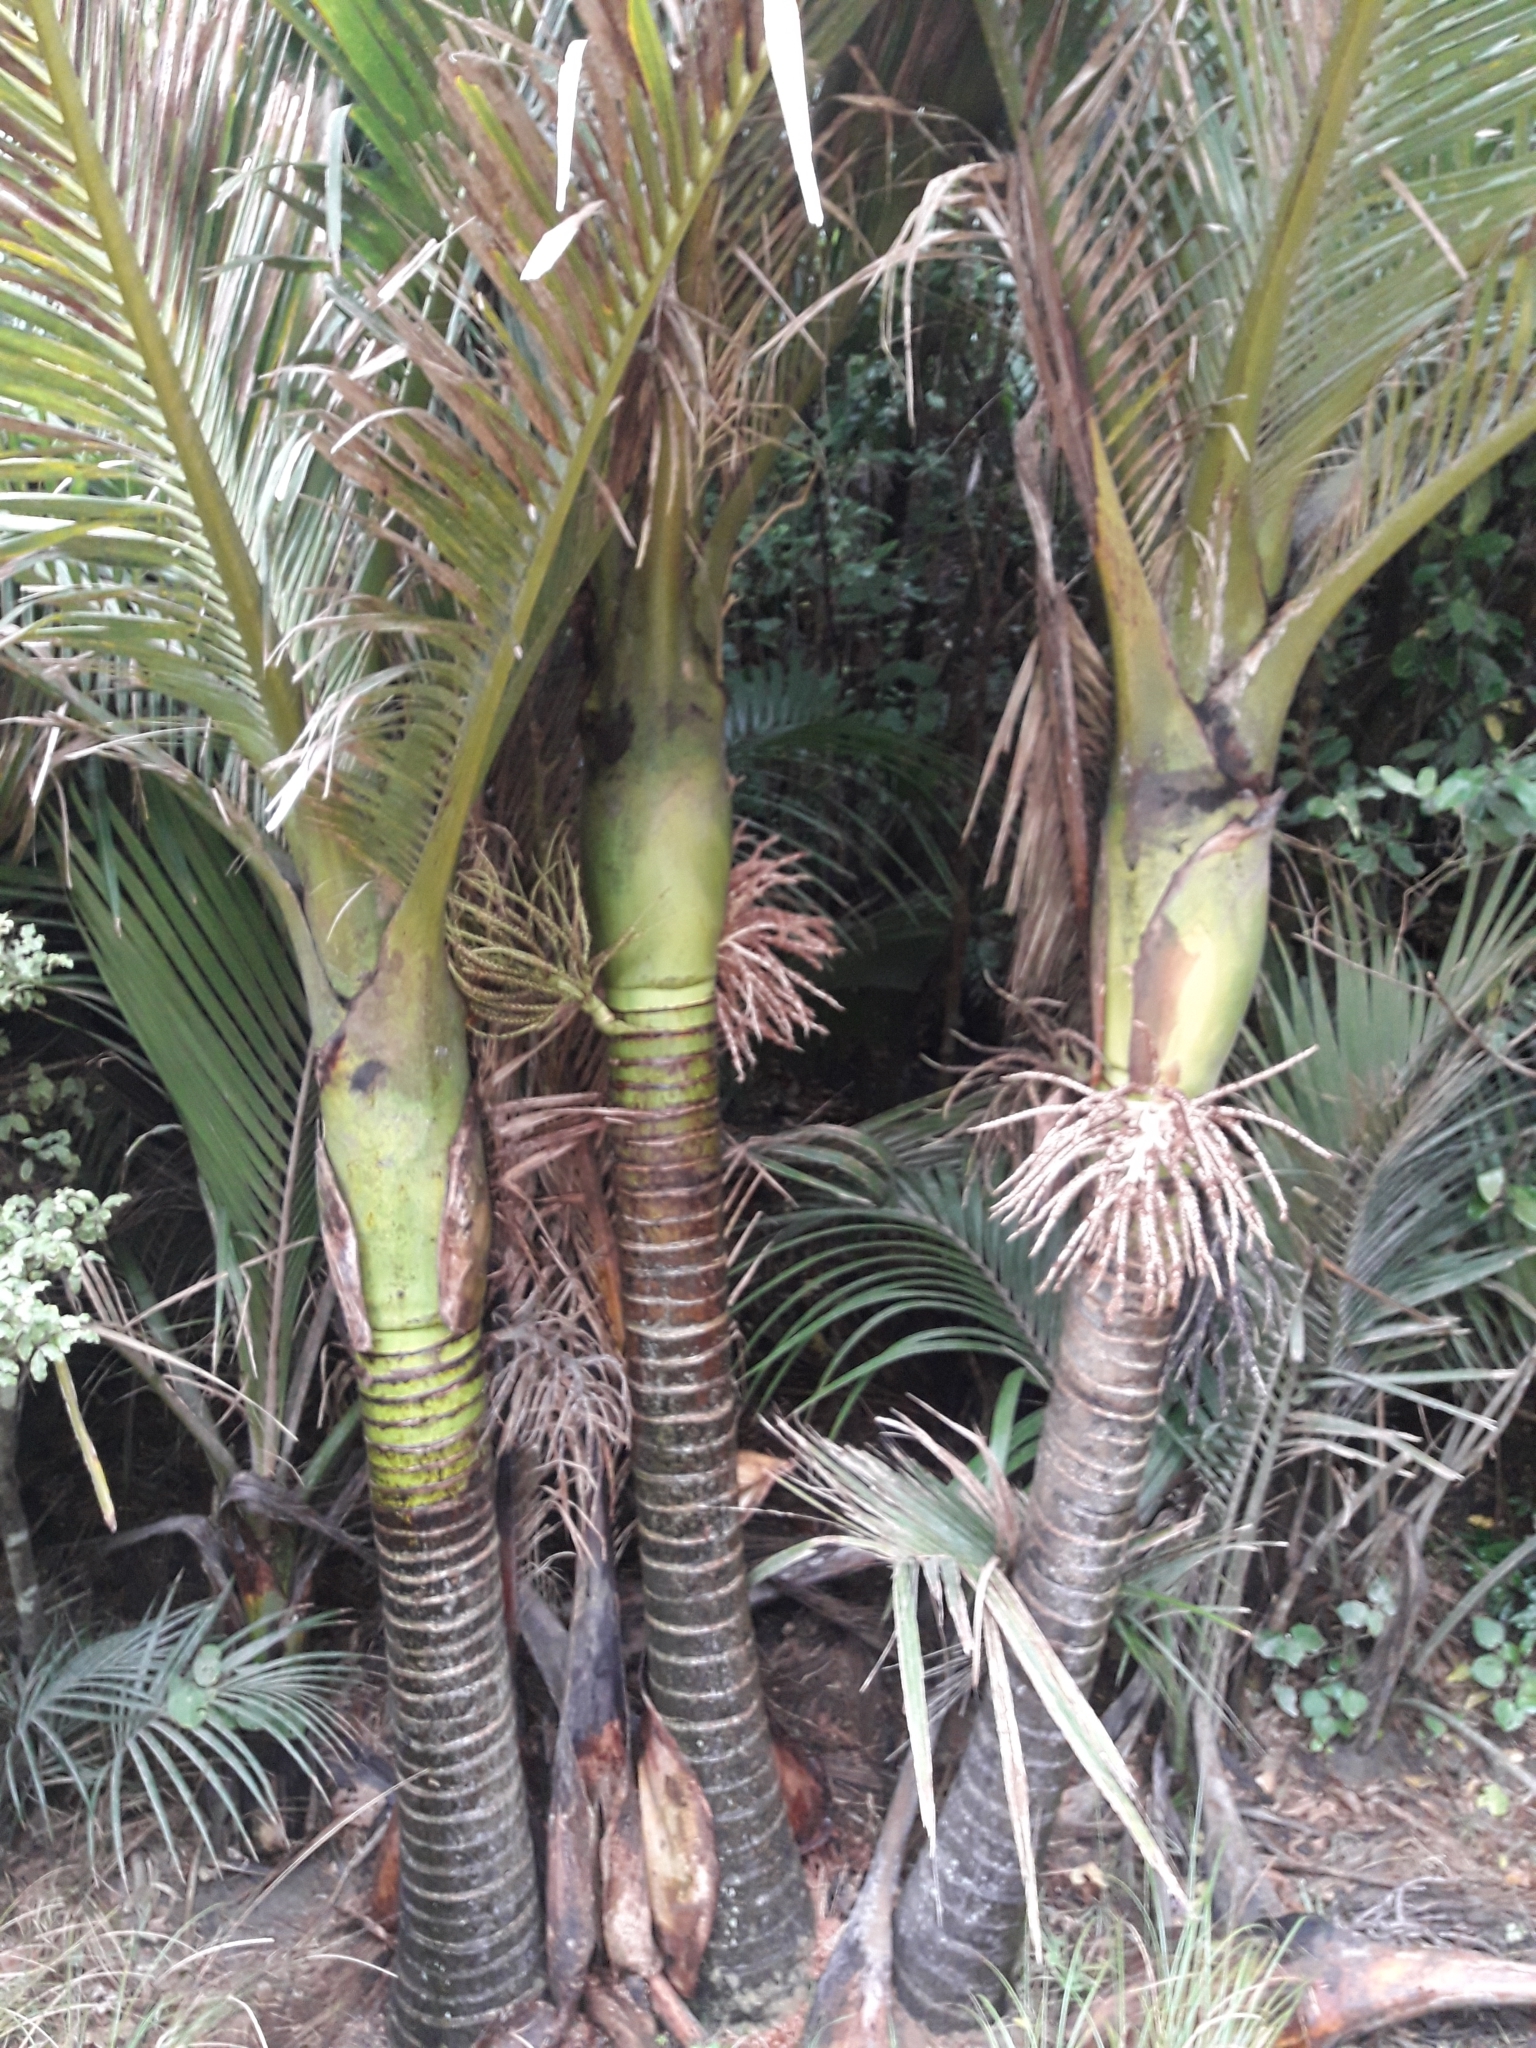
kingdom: Plantae
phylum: Tracheophyta
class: Liliopsida
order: Arecales
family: Arecaceae
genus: Rhopalostylis
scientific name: Rhopalostylis sapida
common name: Feather-duster palm
